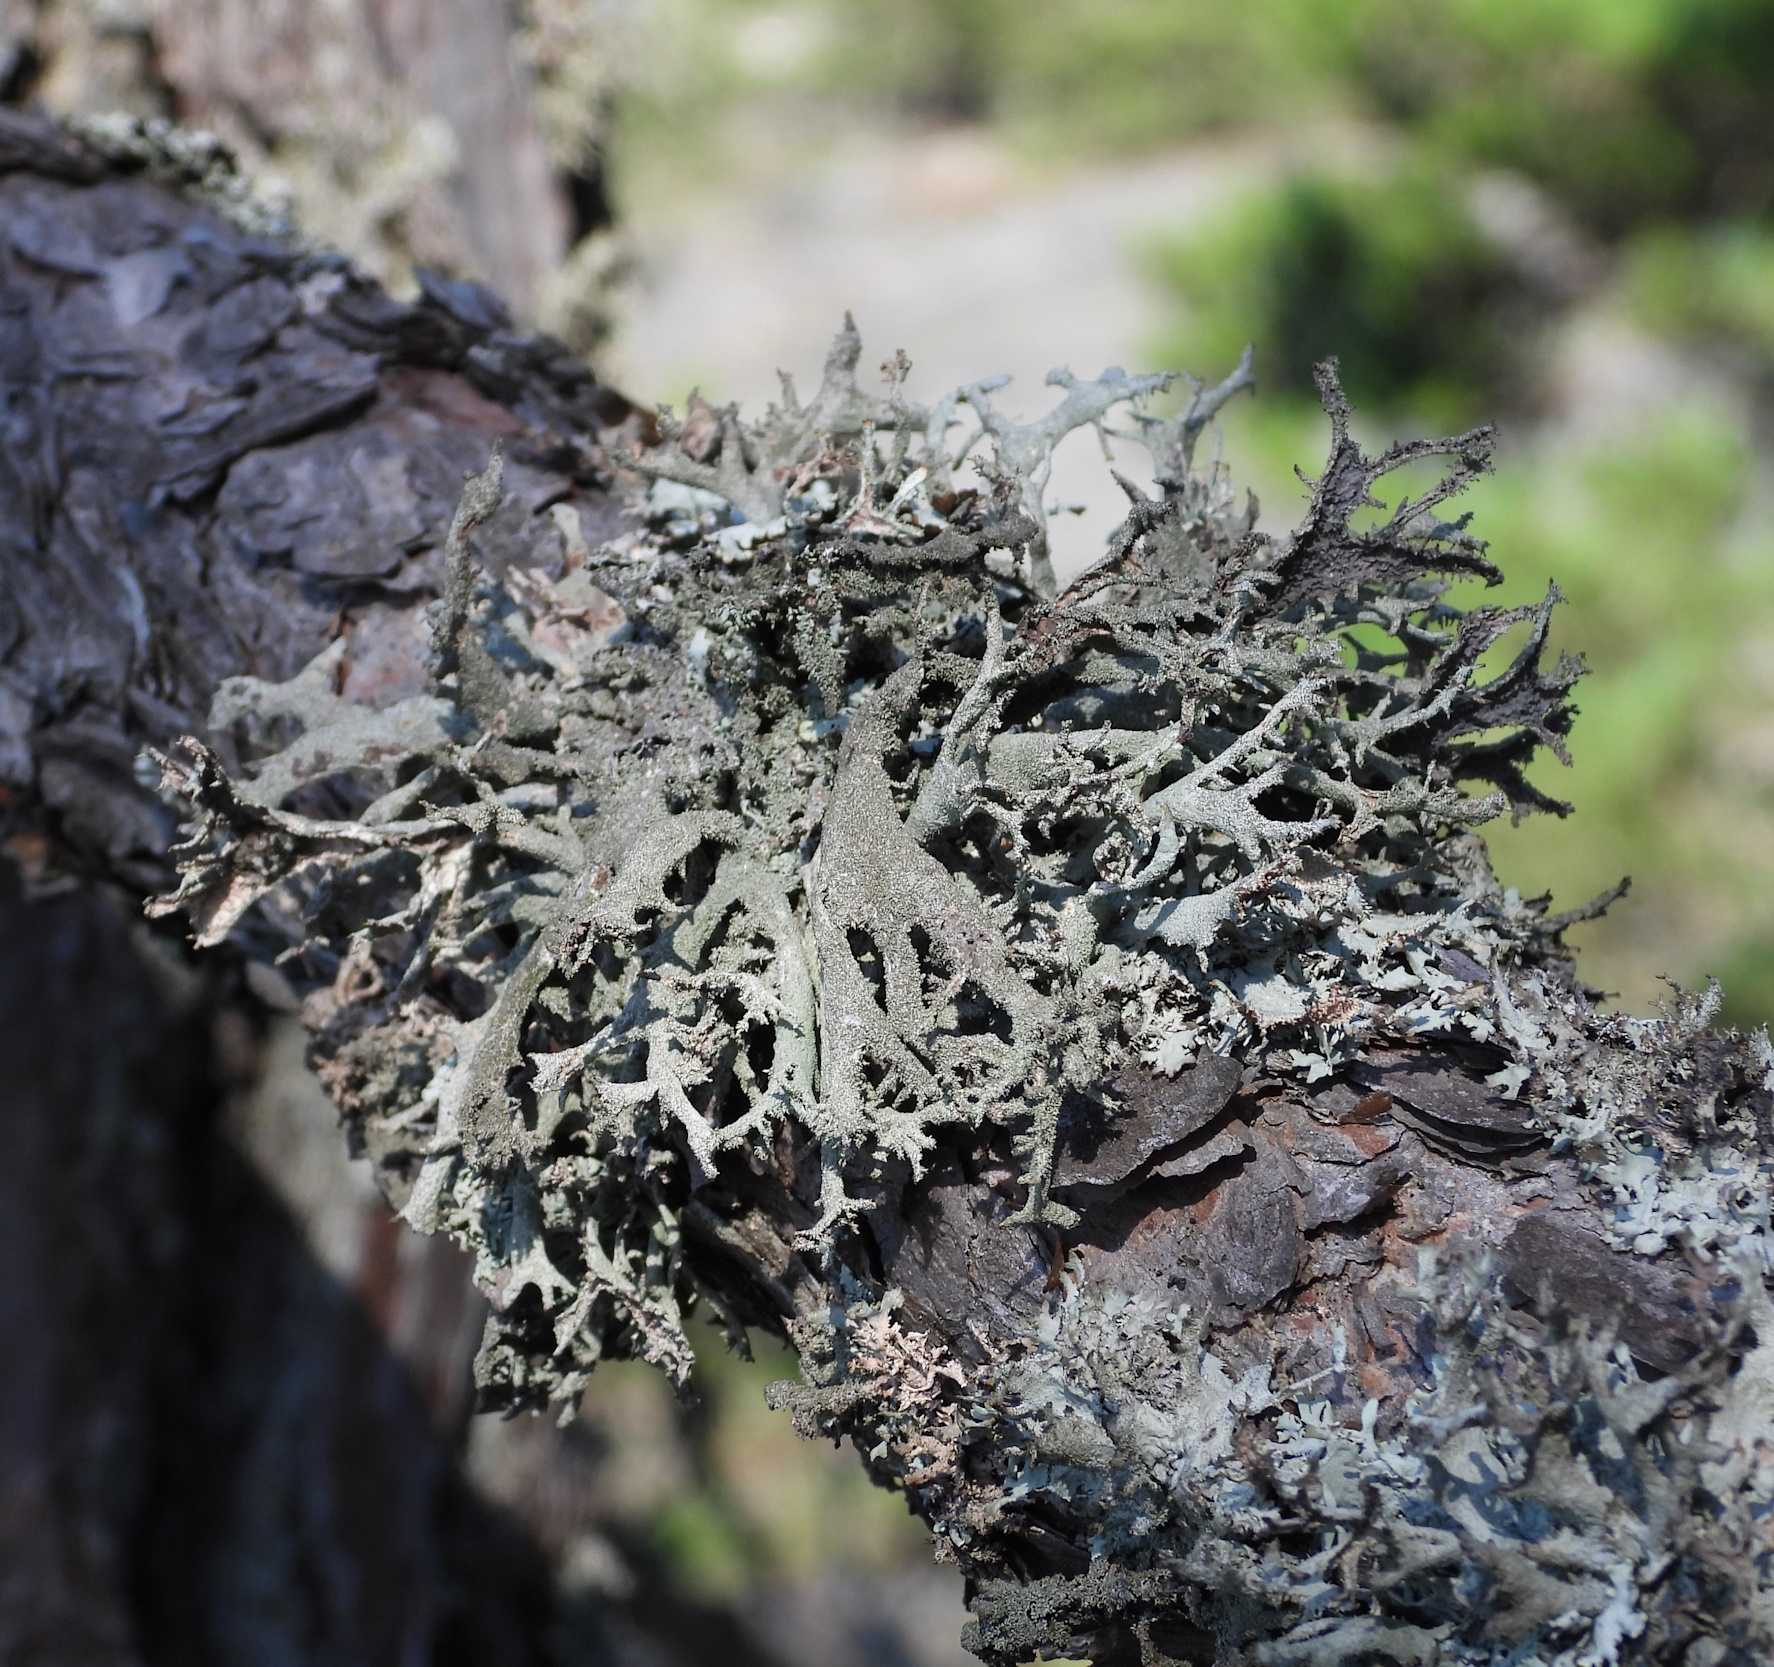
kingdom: Fungi
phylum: Ascomycota
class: Lecanoromycetes
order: Lecanorales
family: Parmeliaceae
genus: Pseudevernia
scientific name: Pseudevernia furfuracea
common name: Tree moss
